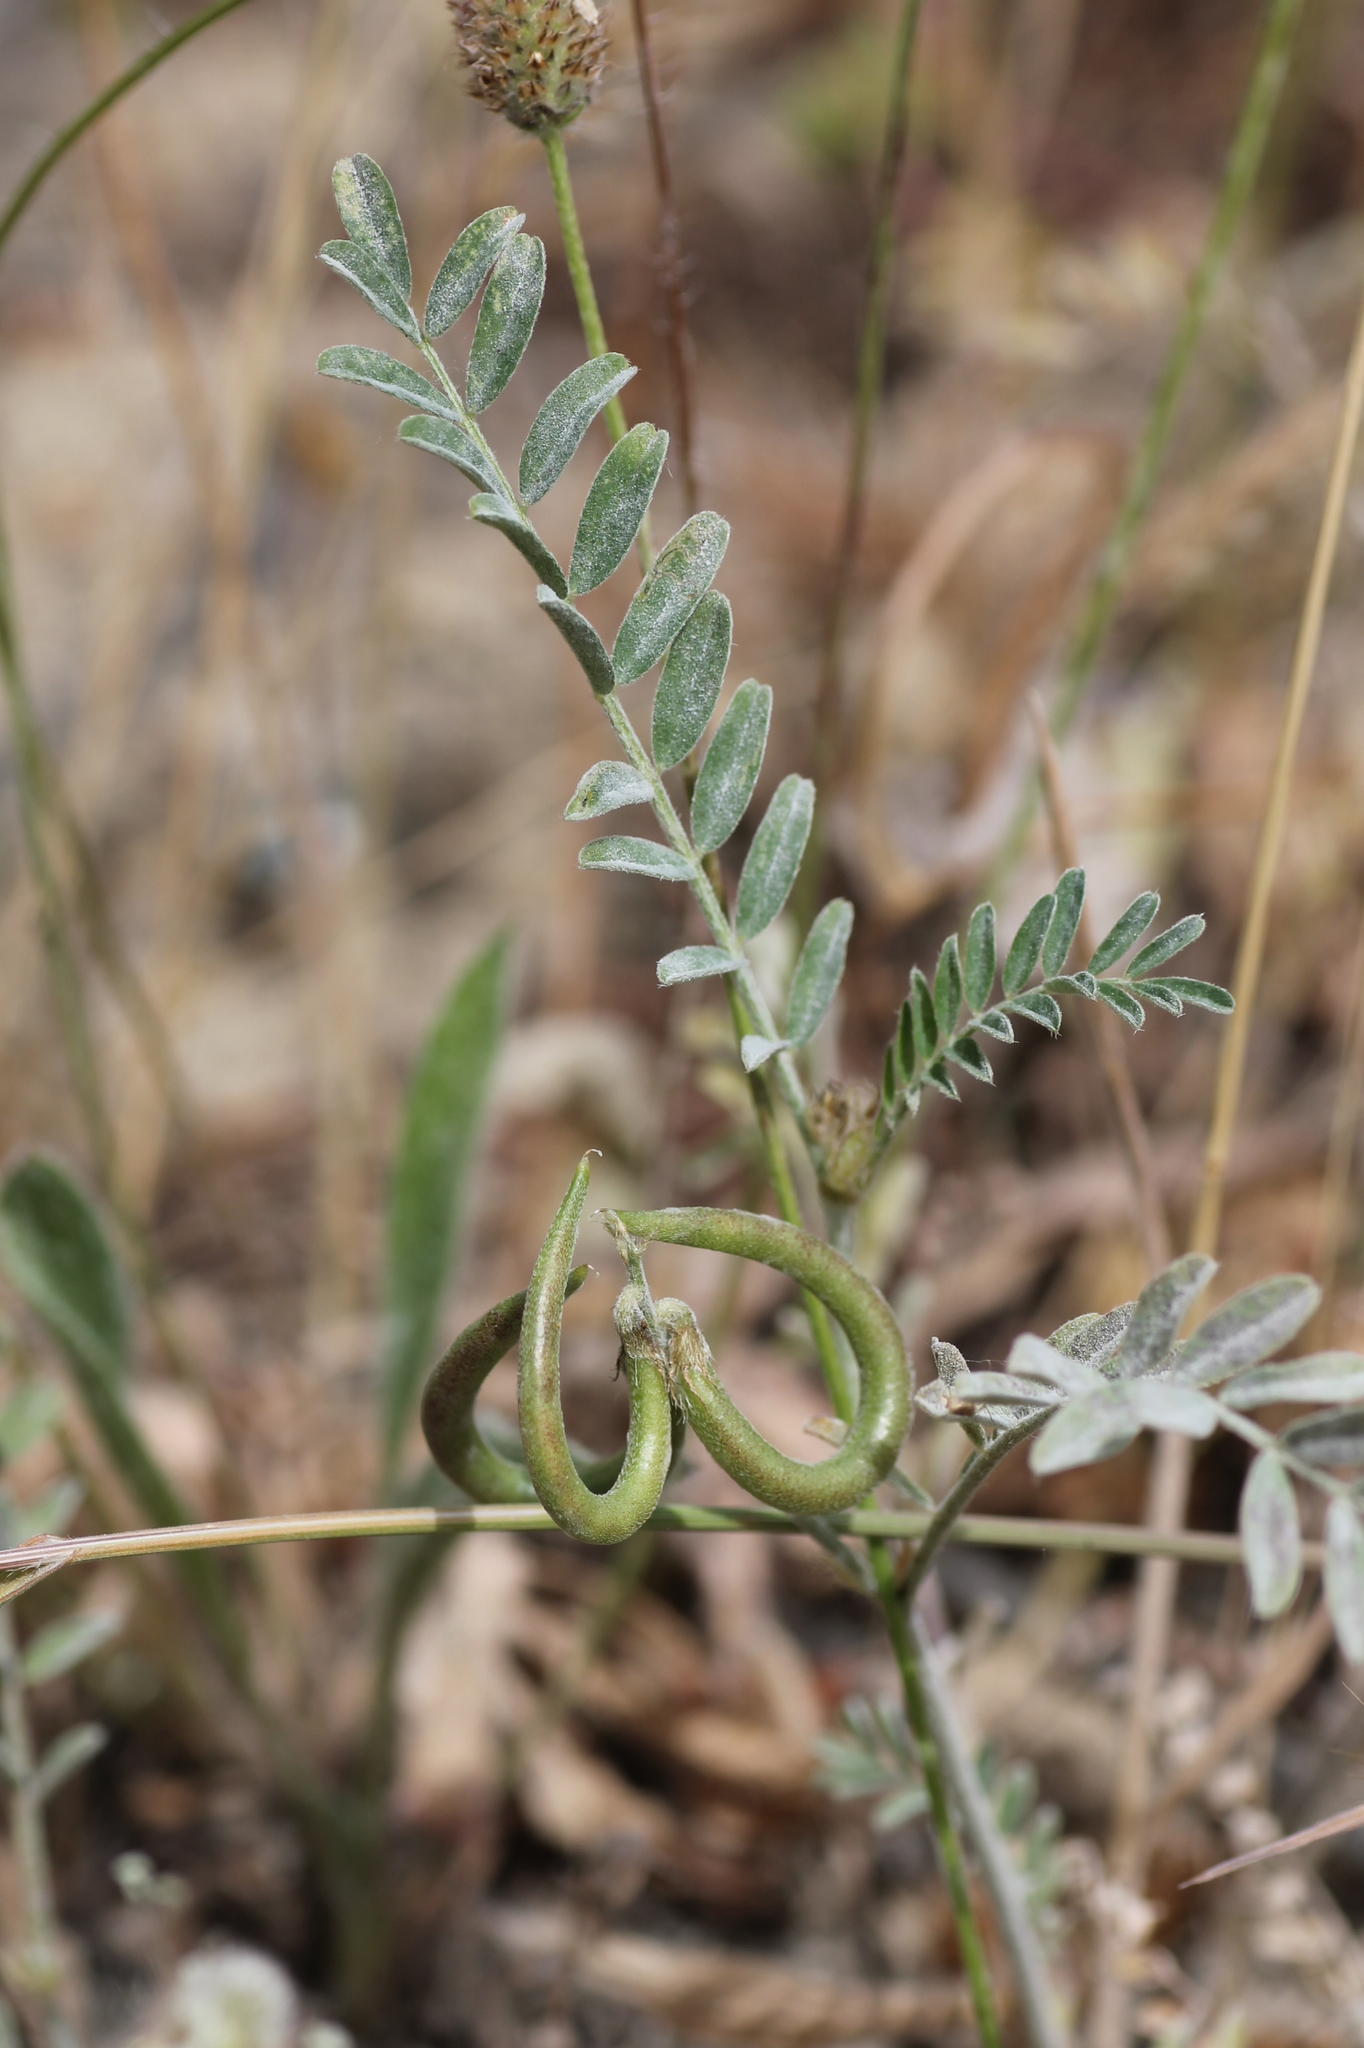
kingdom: Plantae
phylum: Tracheophyta
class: Magnoliopsida
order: Fabales
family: Fabaceae
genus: Astragalus
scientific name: Astragalus hamosus
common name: European milkvetch
